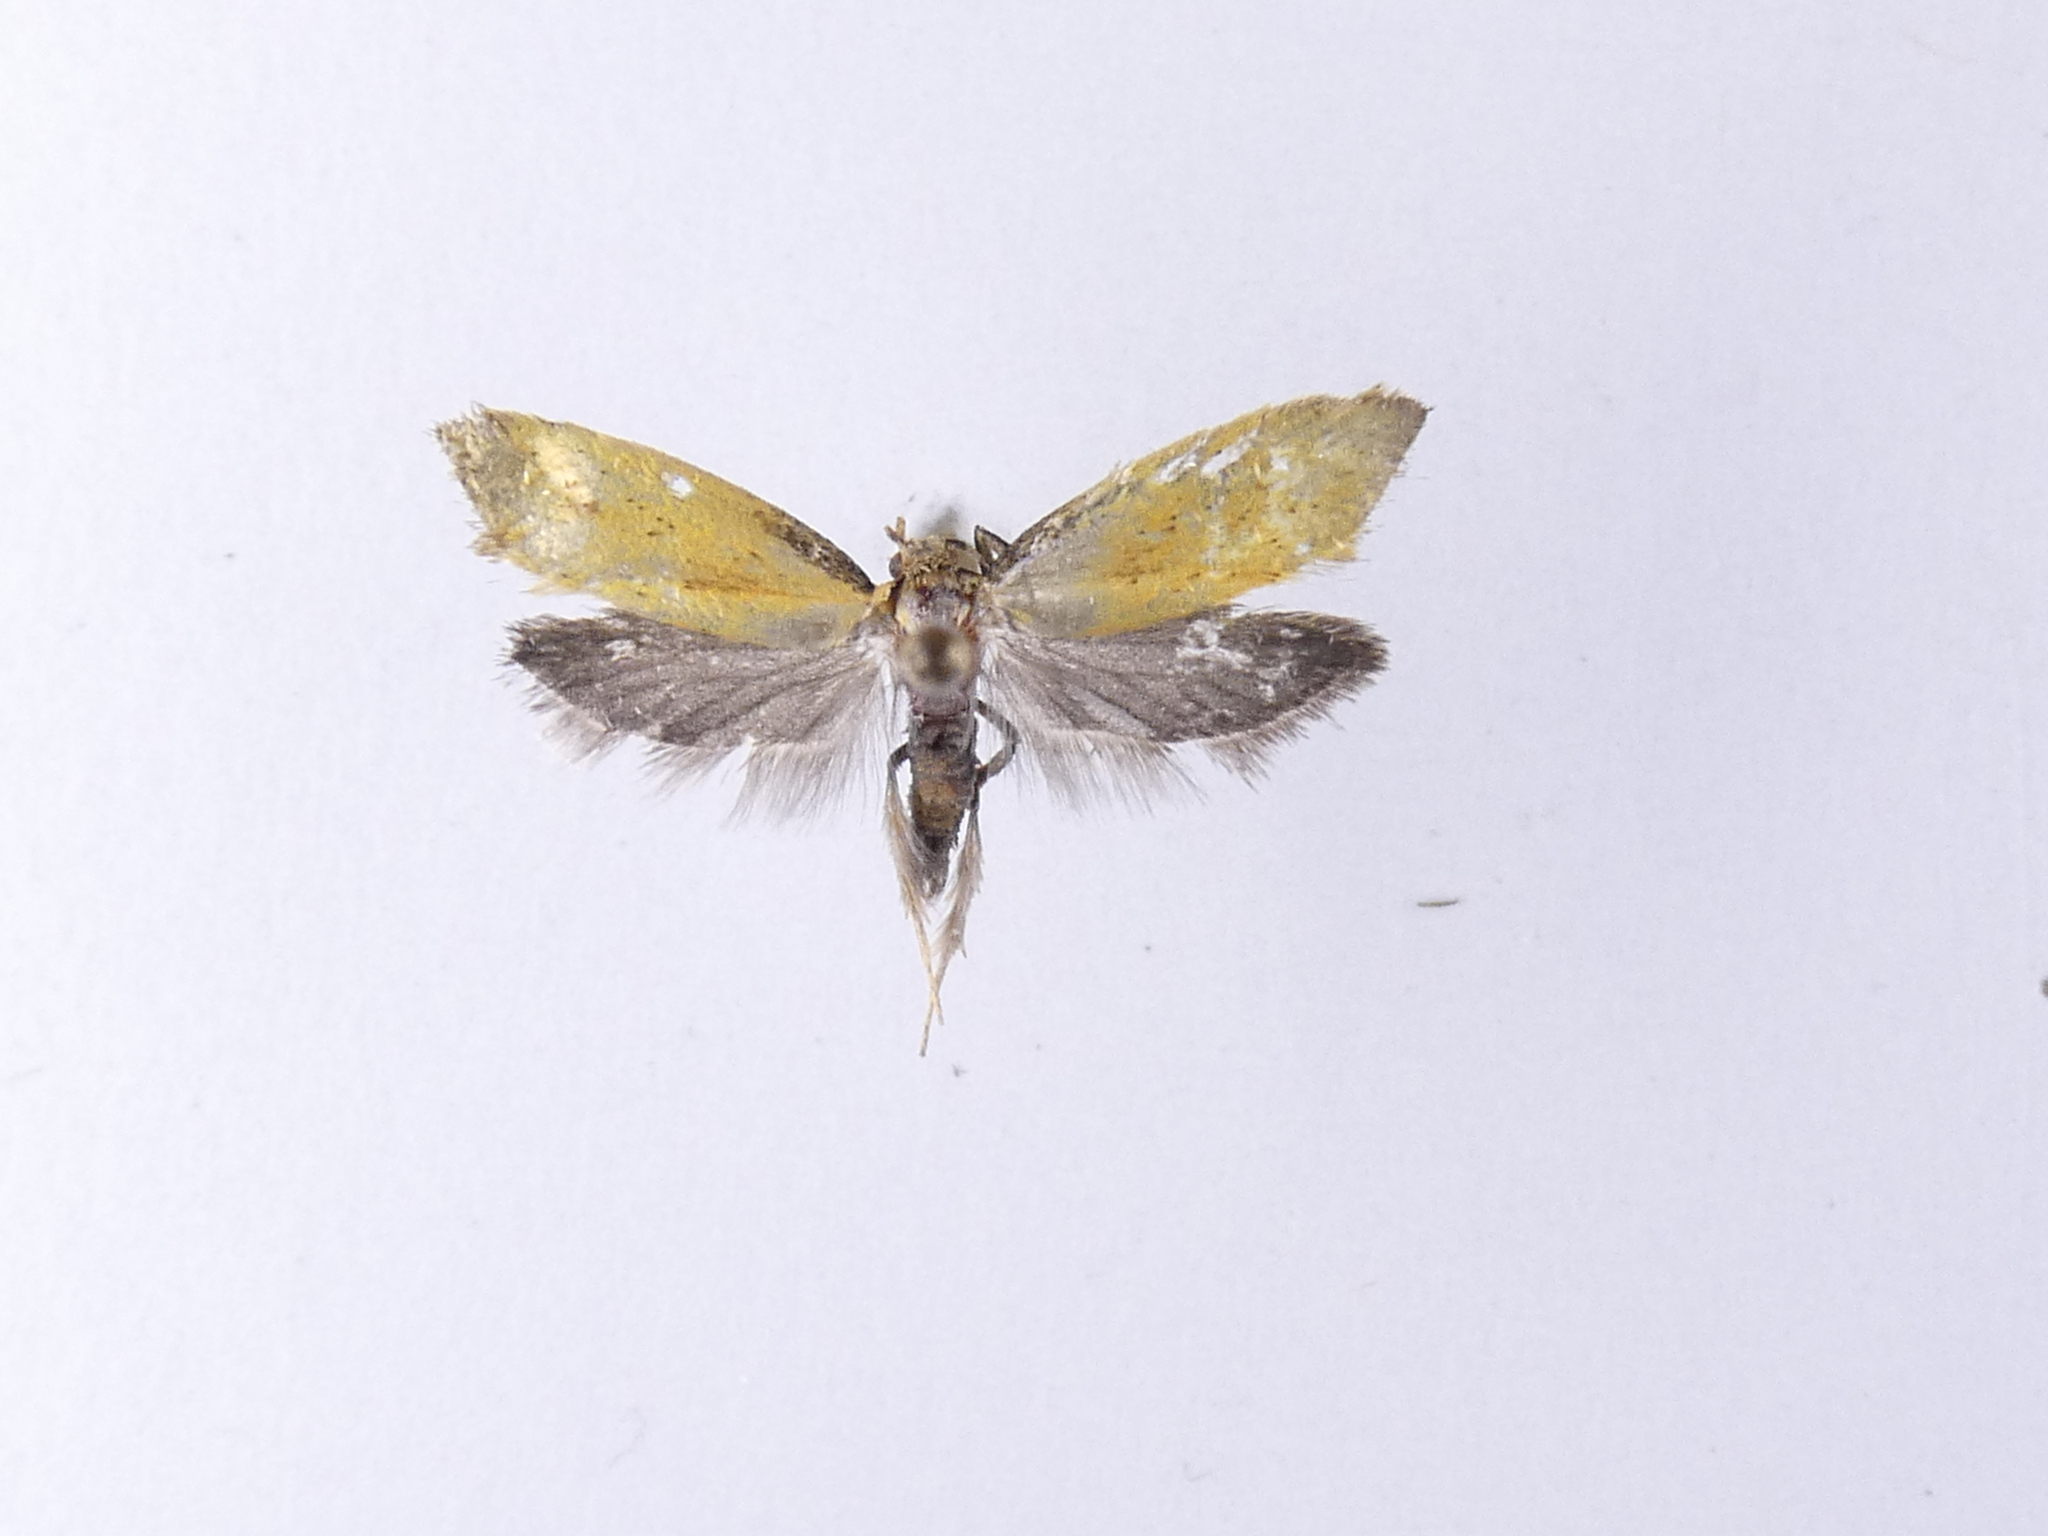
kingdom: Animalia
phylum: Arthropoda
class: Insecta
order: Lepidoptera
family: Oecophoridae
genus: Tingena
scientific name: Tingena armigerella
